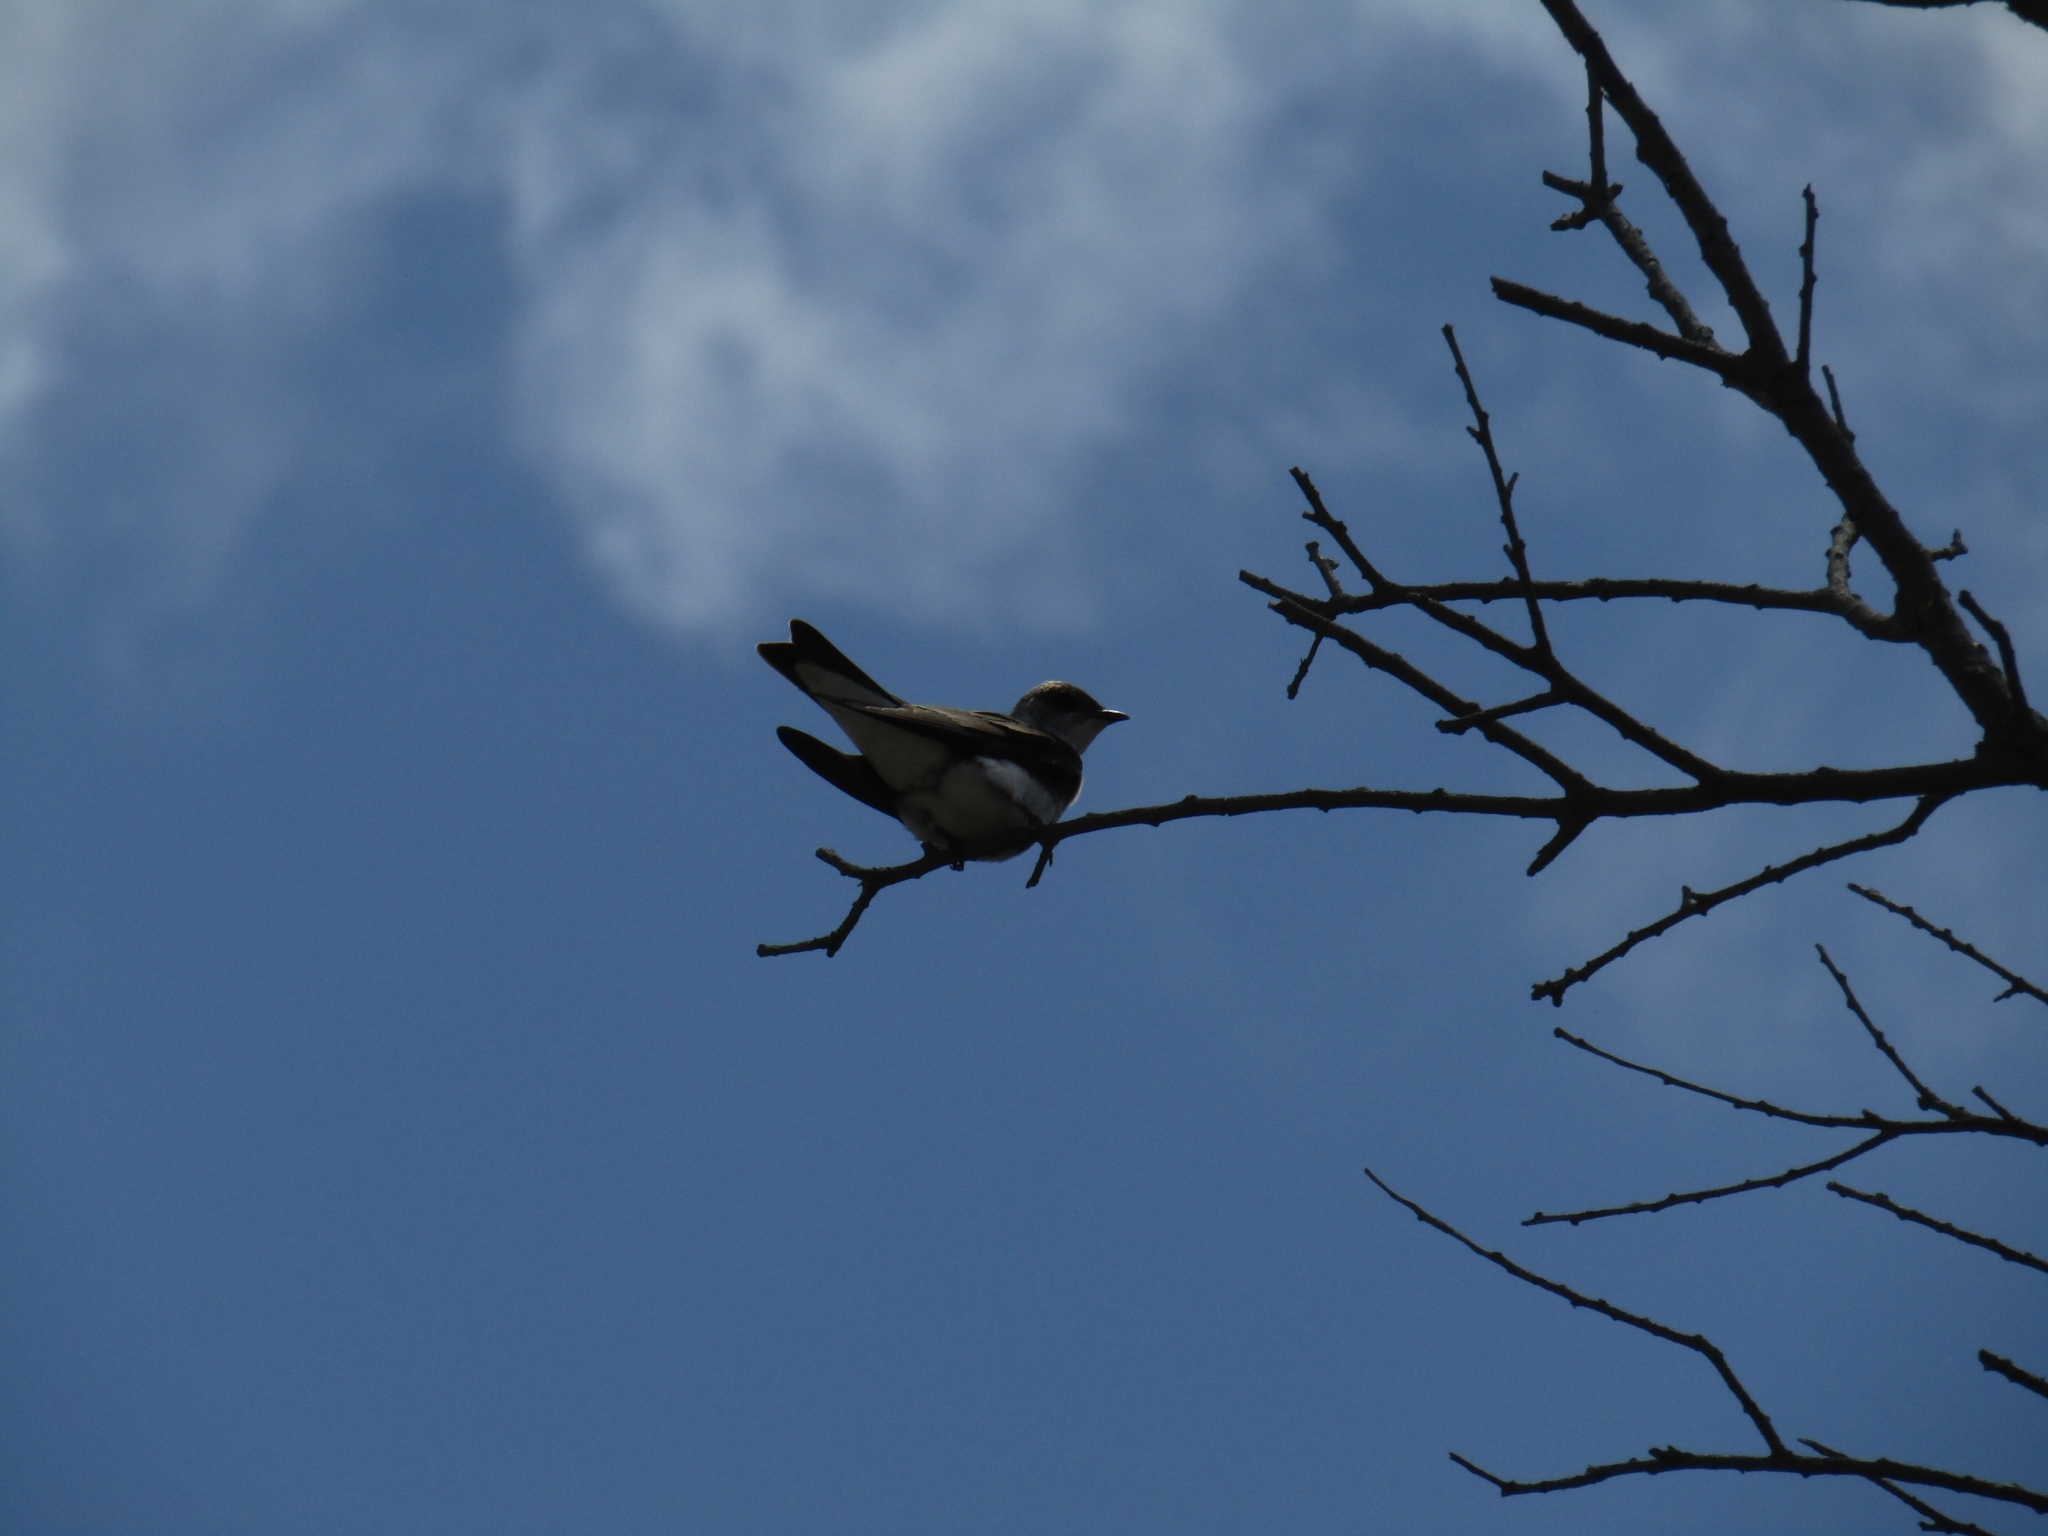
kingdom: Animalia
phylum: Chordata
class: Aves
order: Passeriformes
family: Hirundinidae
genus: Progne
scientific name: Progne tapera
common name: Brown-chested martin
